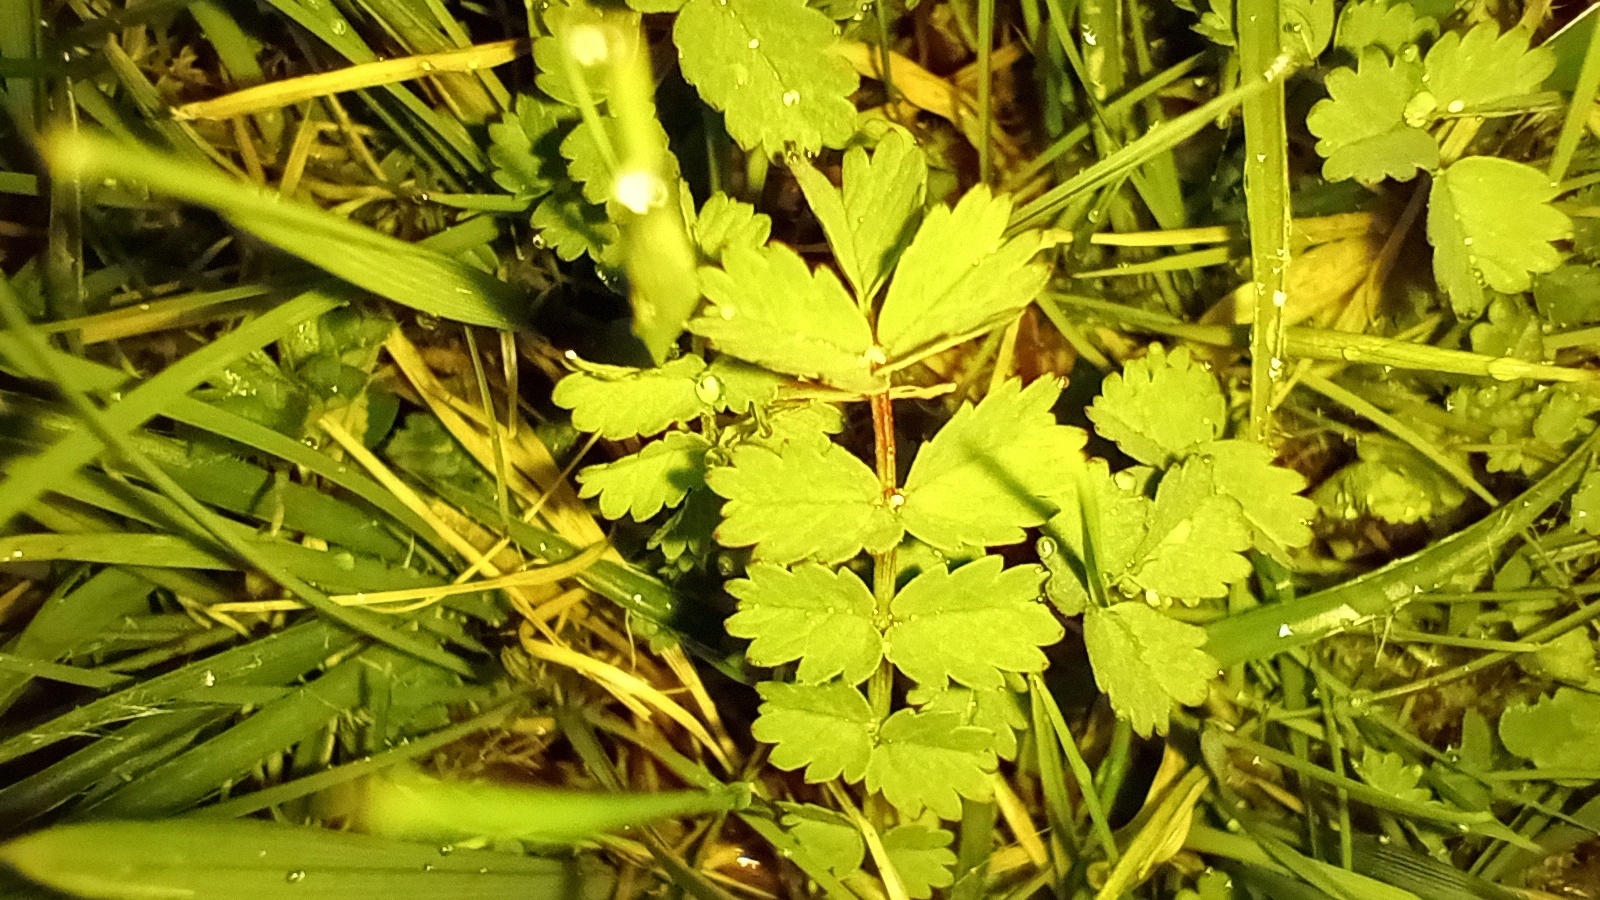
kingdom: Plantae
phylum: Tracheophyta
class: Magnoliopsida
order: Rosales
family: Rosaceae
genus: Poterium
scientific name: Poterium sanguisorba
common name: Salad burnet
